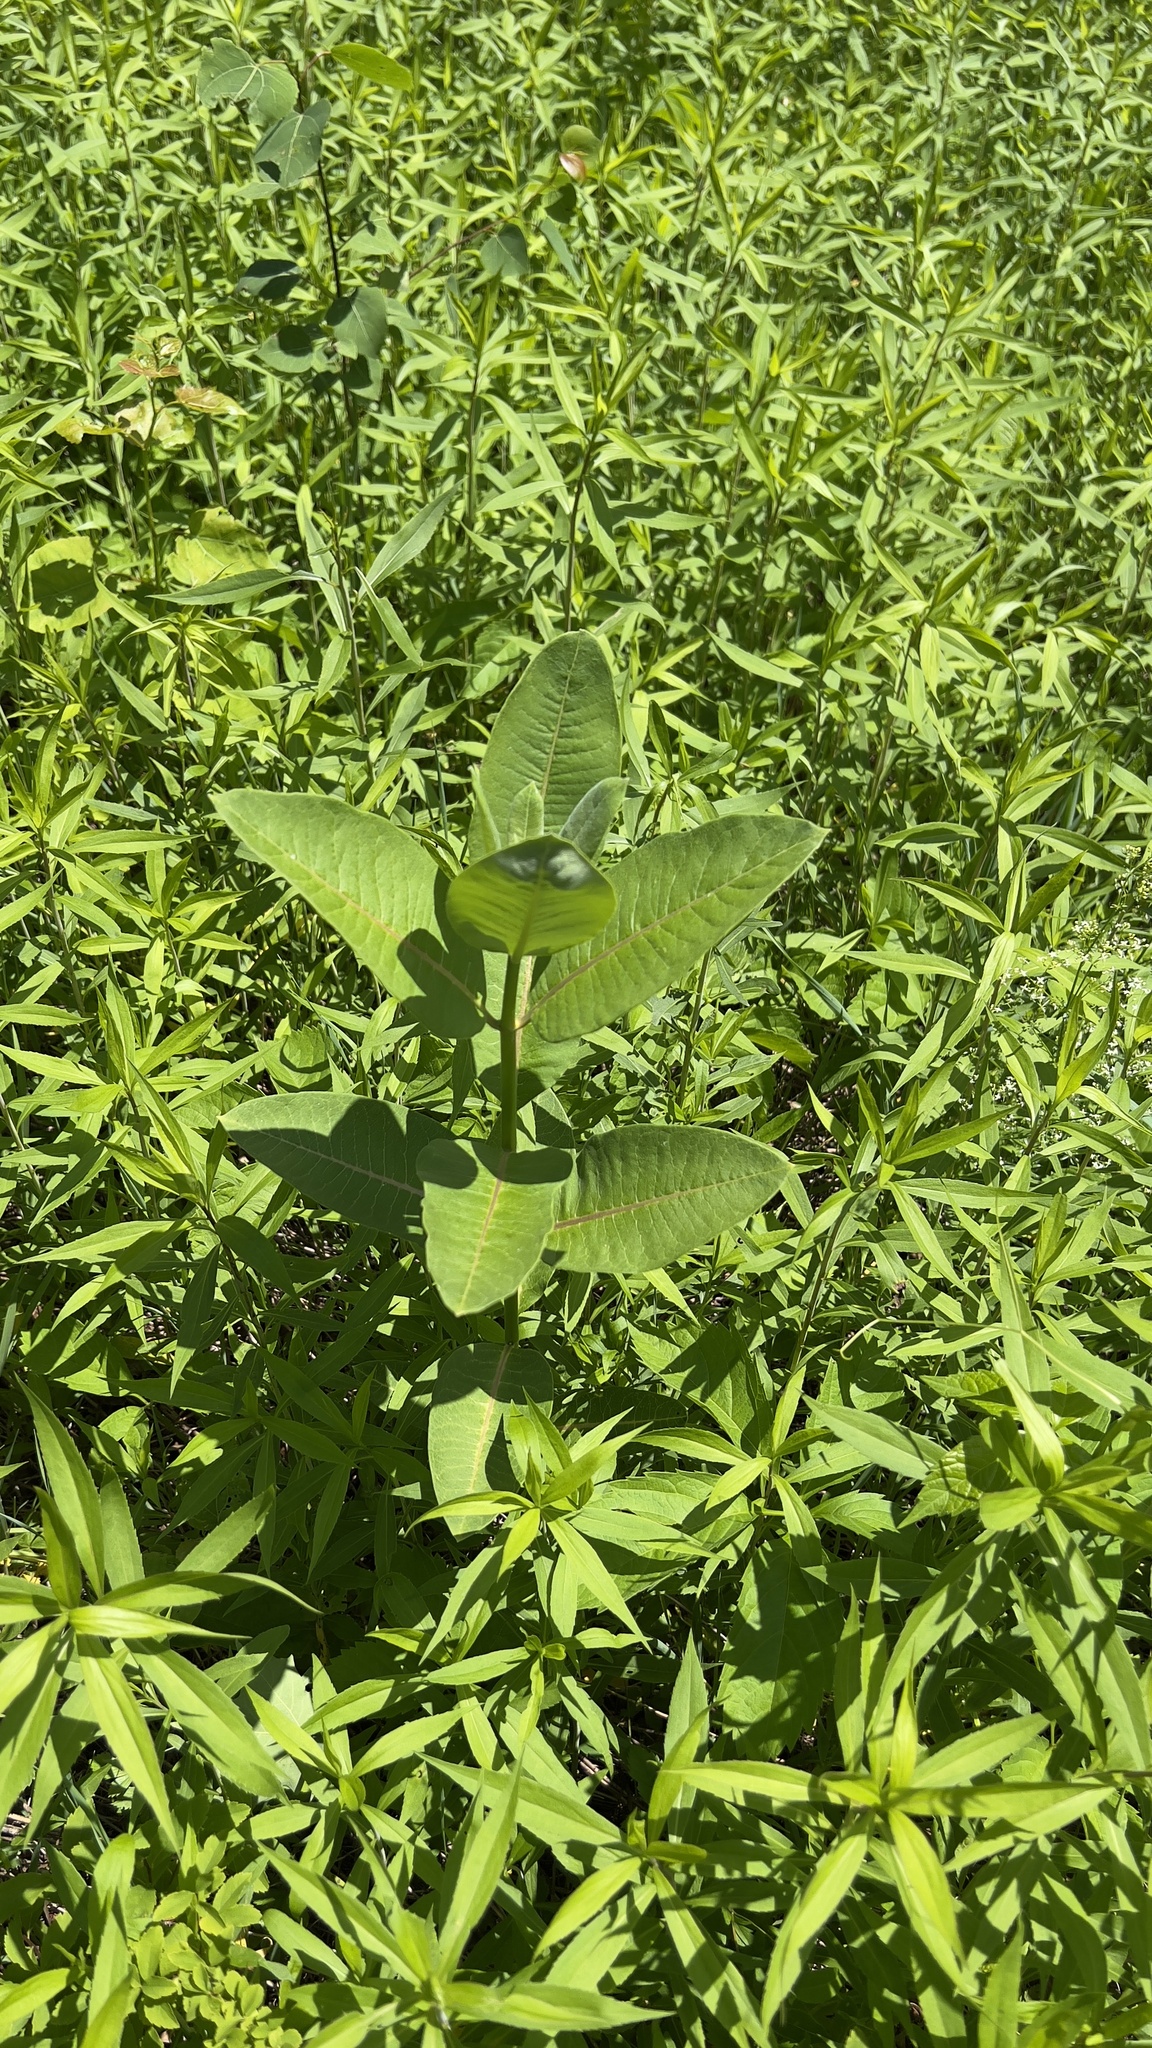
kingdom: Plantae
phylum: Tracheophyta
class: Magnoliopsida
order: Gentianales
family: Apocynaceae
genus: Asclepias
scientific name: Asclepias syriaca
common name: Common milkweed
